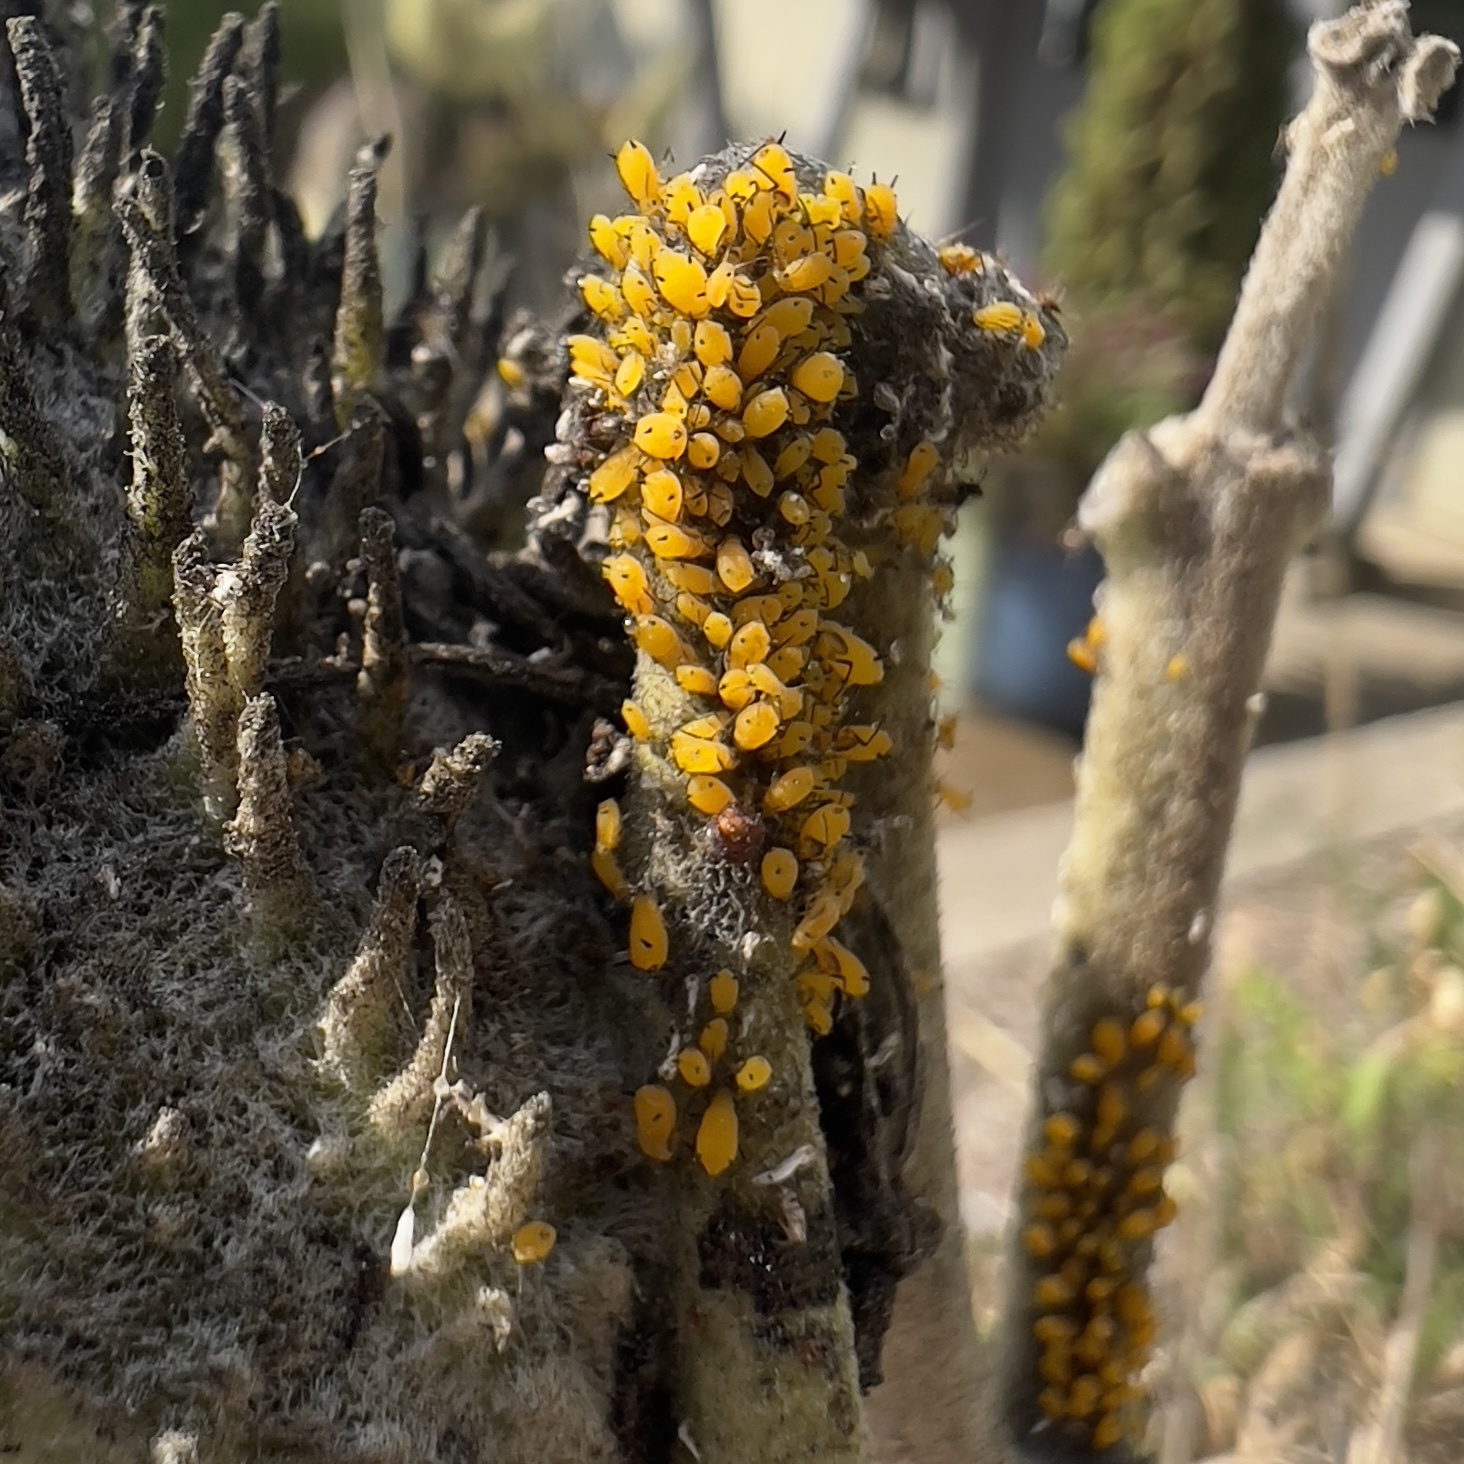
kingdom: Animalia
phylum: Arthropoda
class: Insecta
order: Hemiptera
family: Aphididae
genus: Aphis
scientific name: Aphis nerii
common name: Oleander aphid
